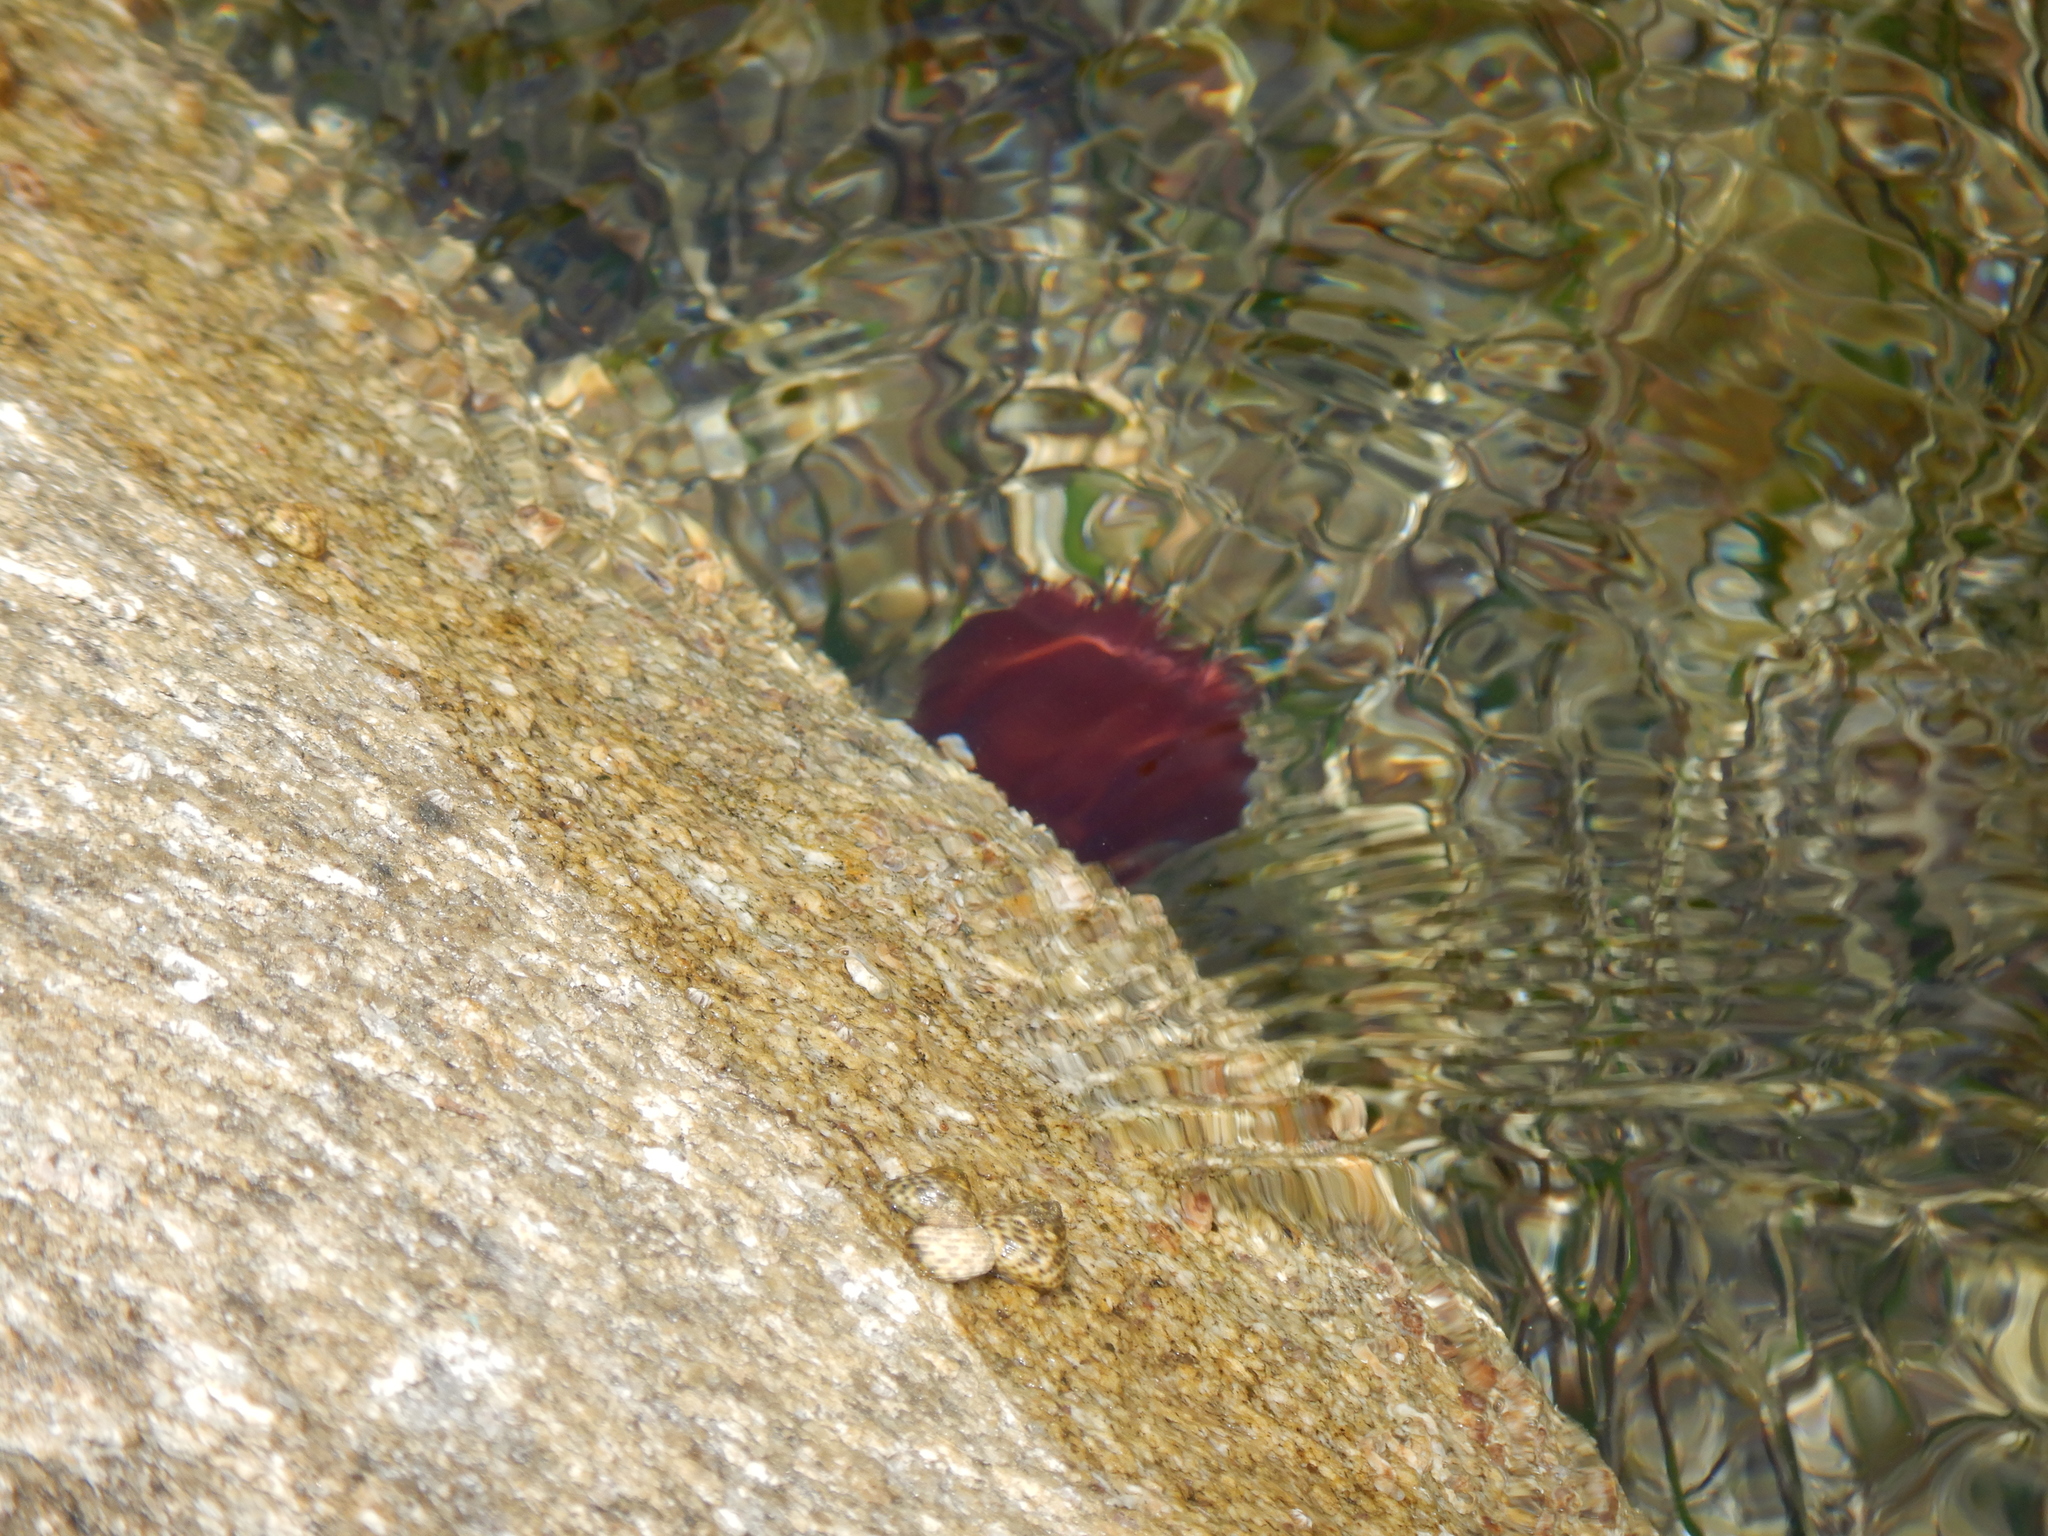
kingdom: Animalia
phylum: Cnidaria
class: Anthozoa
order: Actiniaria
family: Actiniidae
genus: Actinia
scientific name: Actinia mediterranea
